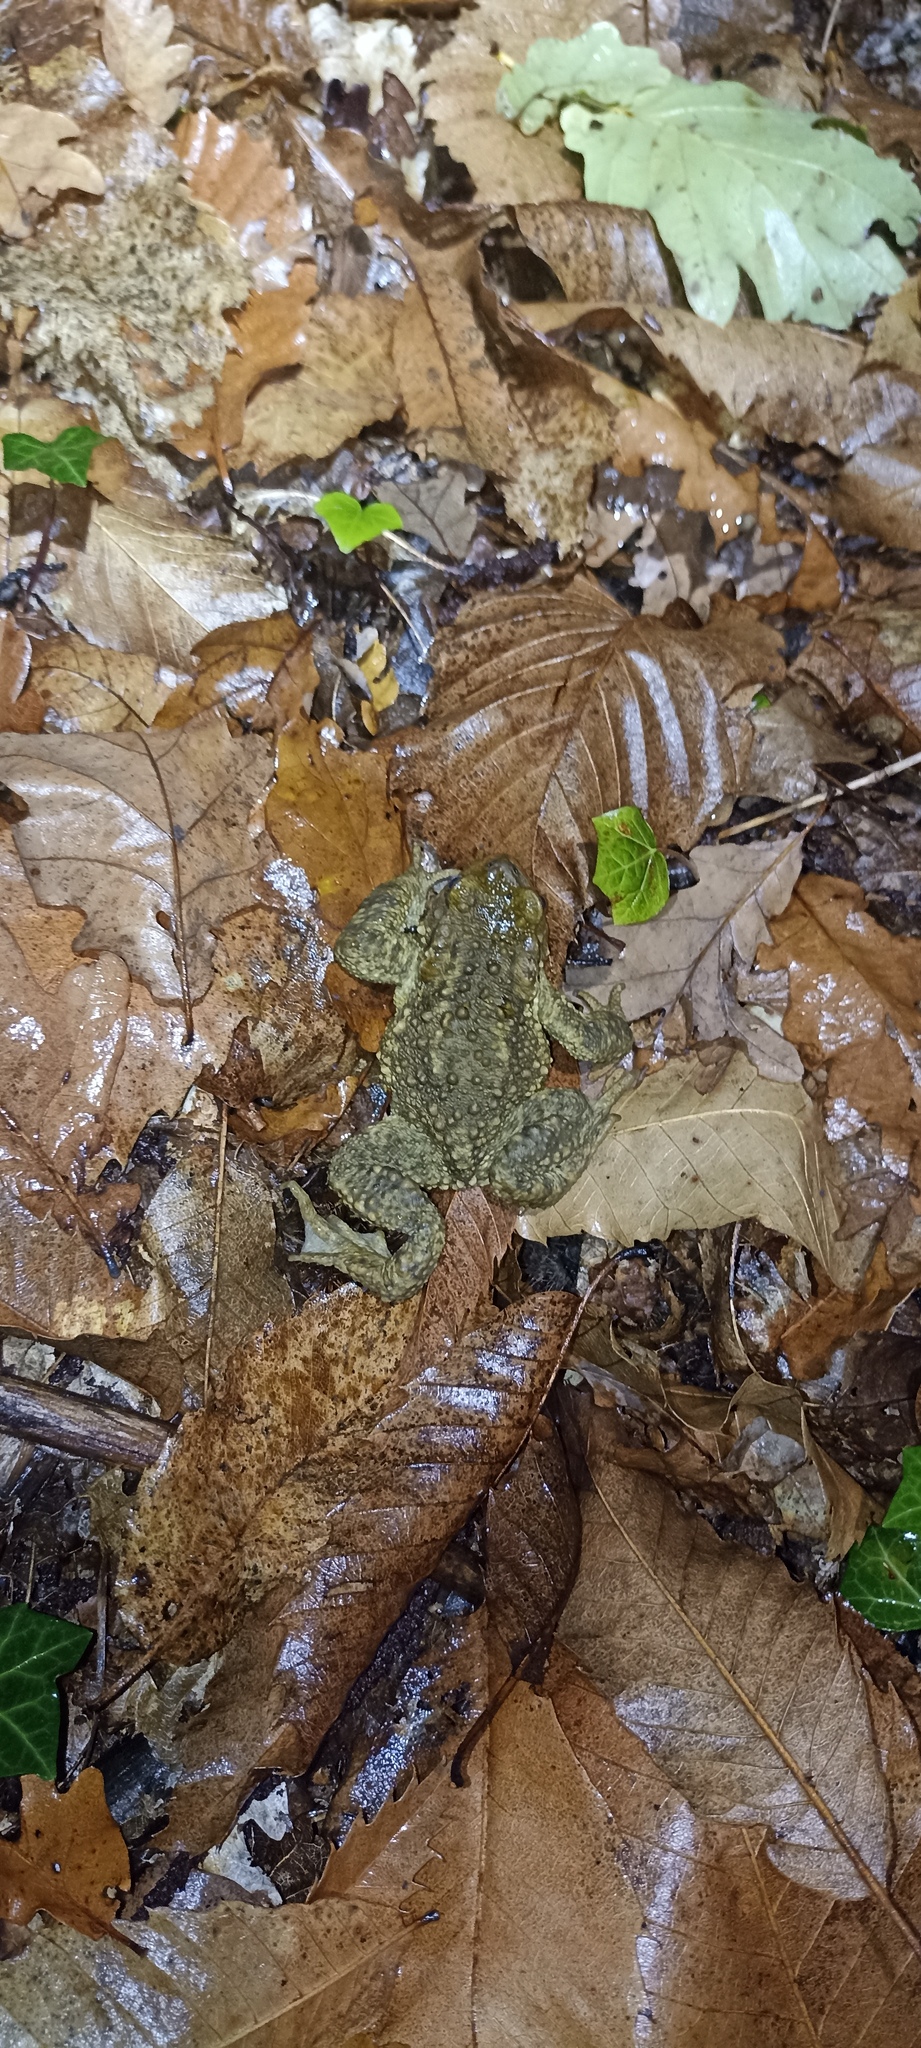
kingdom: Animalia
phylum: Chordata
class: Amphibia
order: Anura
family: Bufonidae
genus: Bufo
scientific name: Bufo spinosus
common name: Western common toad
